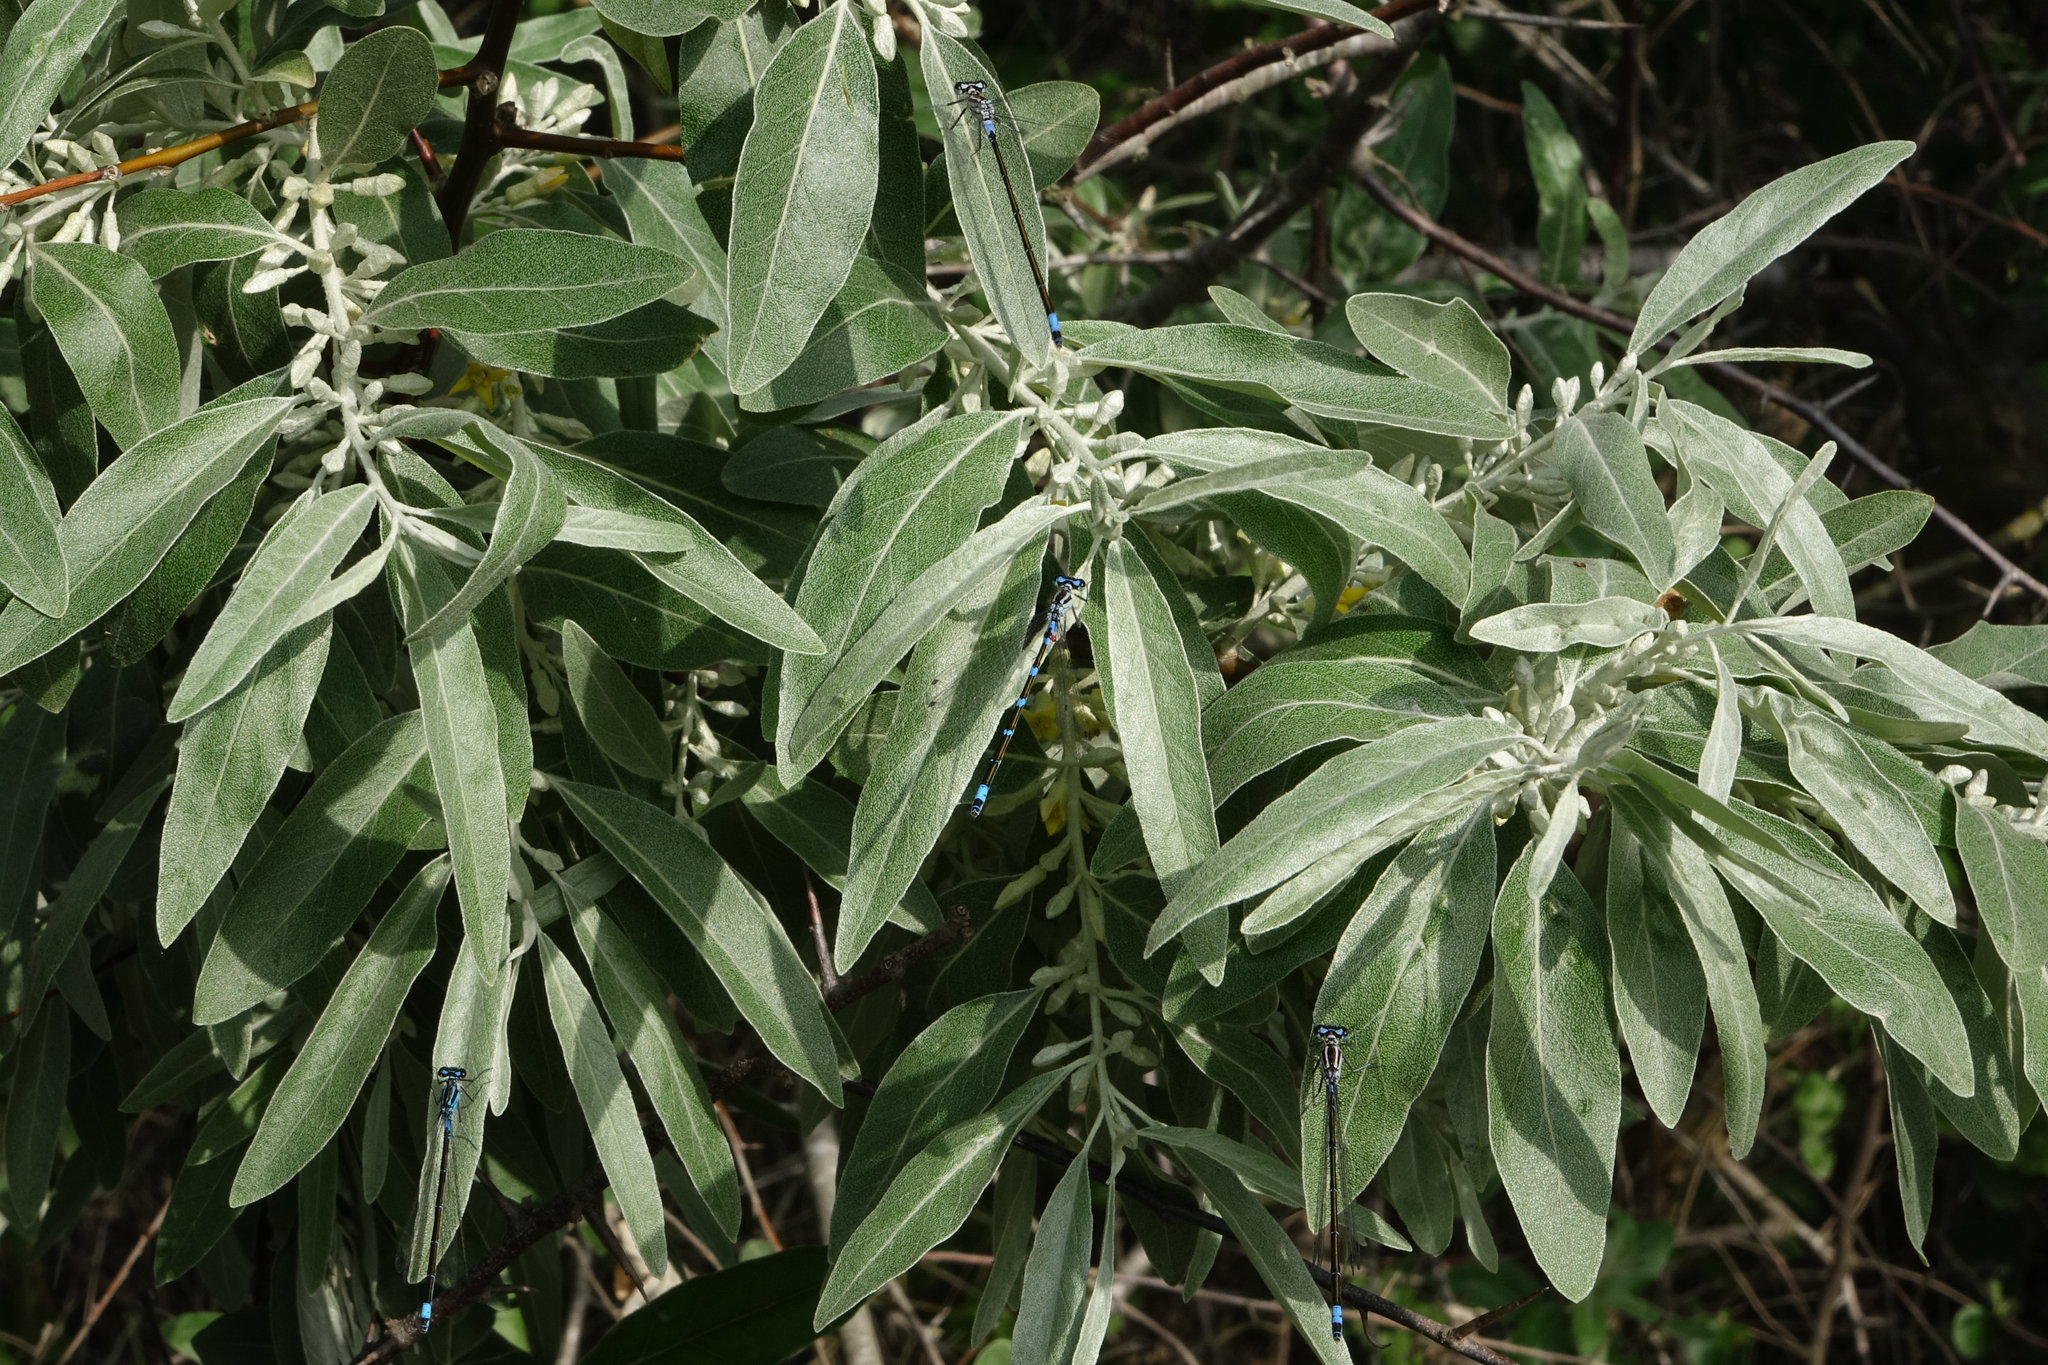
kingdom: Animalia
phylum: Arthropoda
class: Insecta
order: Odonata
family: Coenagrionidae
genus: Coenagrion
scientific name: Coenagrion pulchellum
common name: Variable bluet
